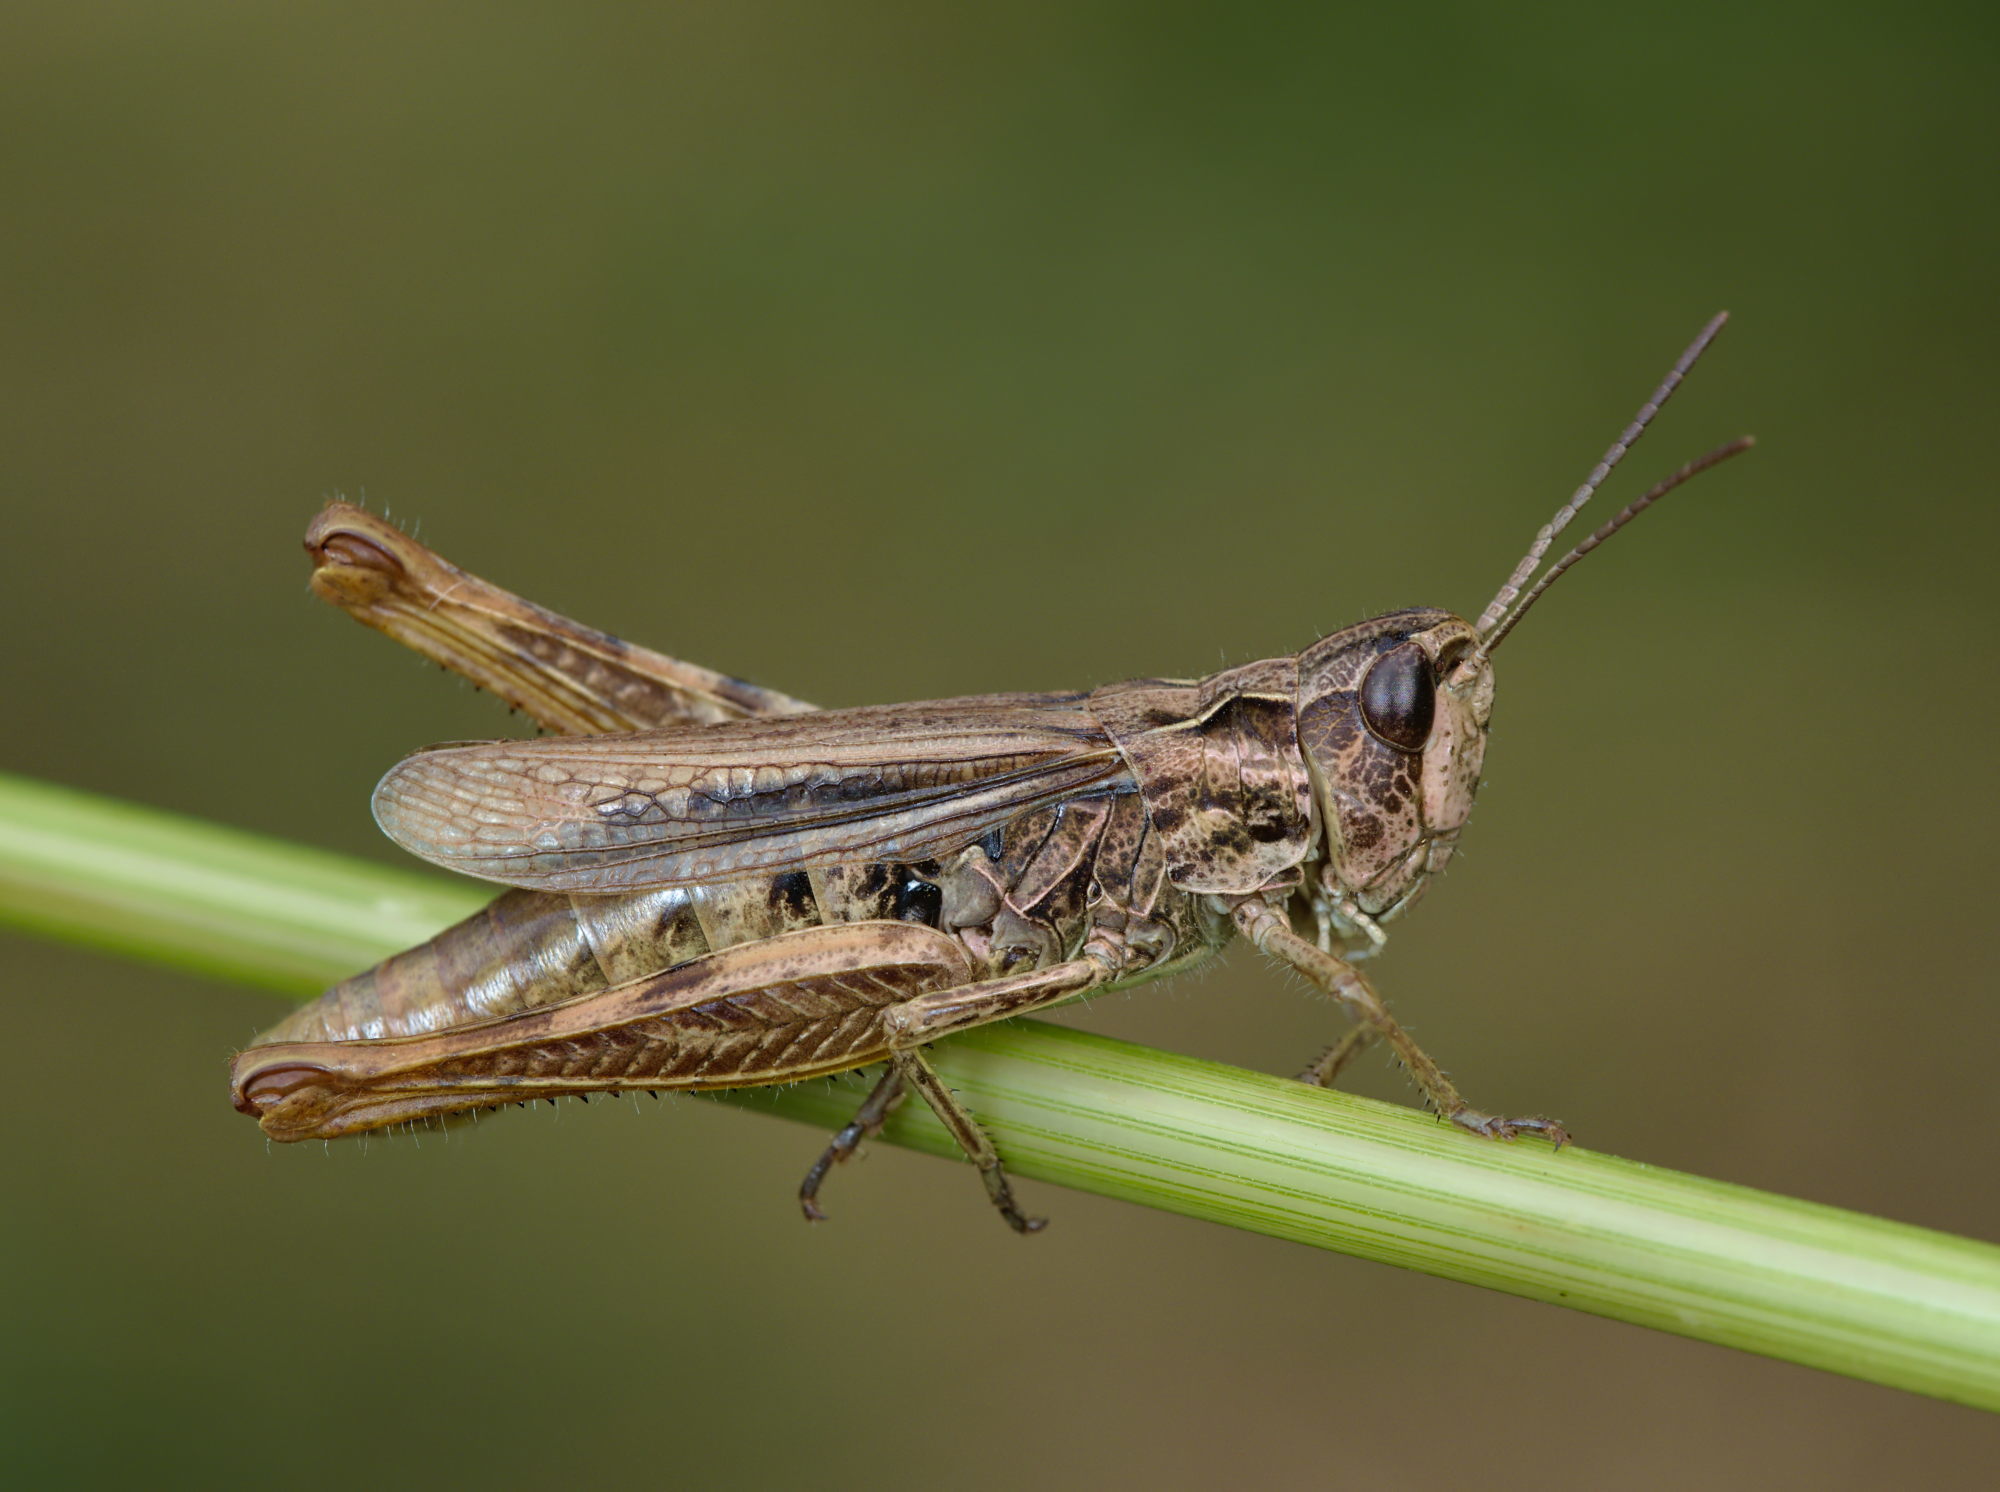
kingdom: Animalia
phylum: Arthropoda
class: Insecta
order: Orthoptera
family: Acrididae
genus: Chorthippus
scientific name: Chorthippus apricarius
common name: Upland field grasshopper
